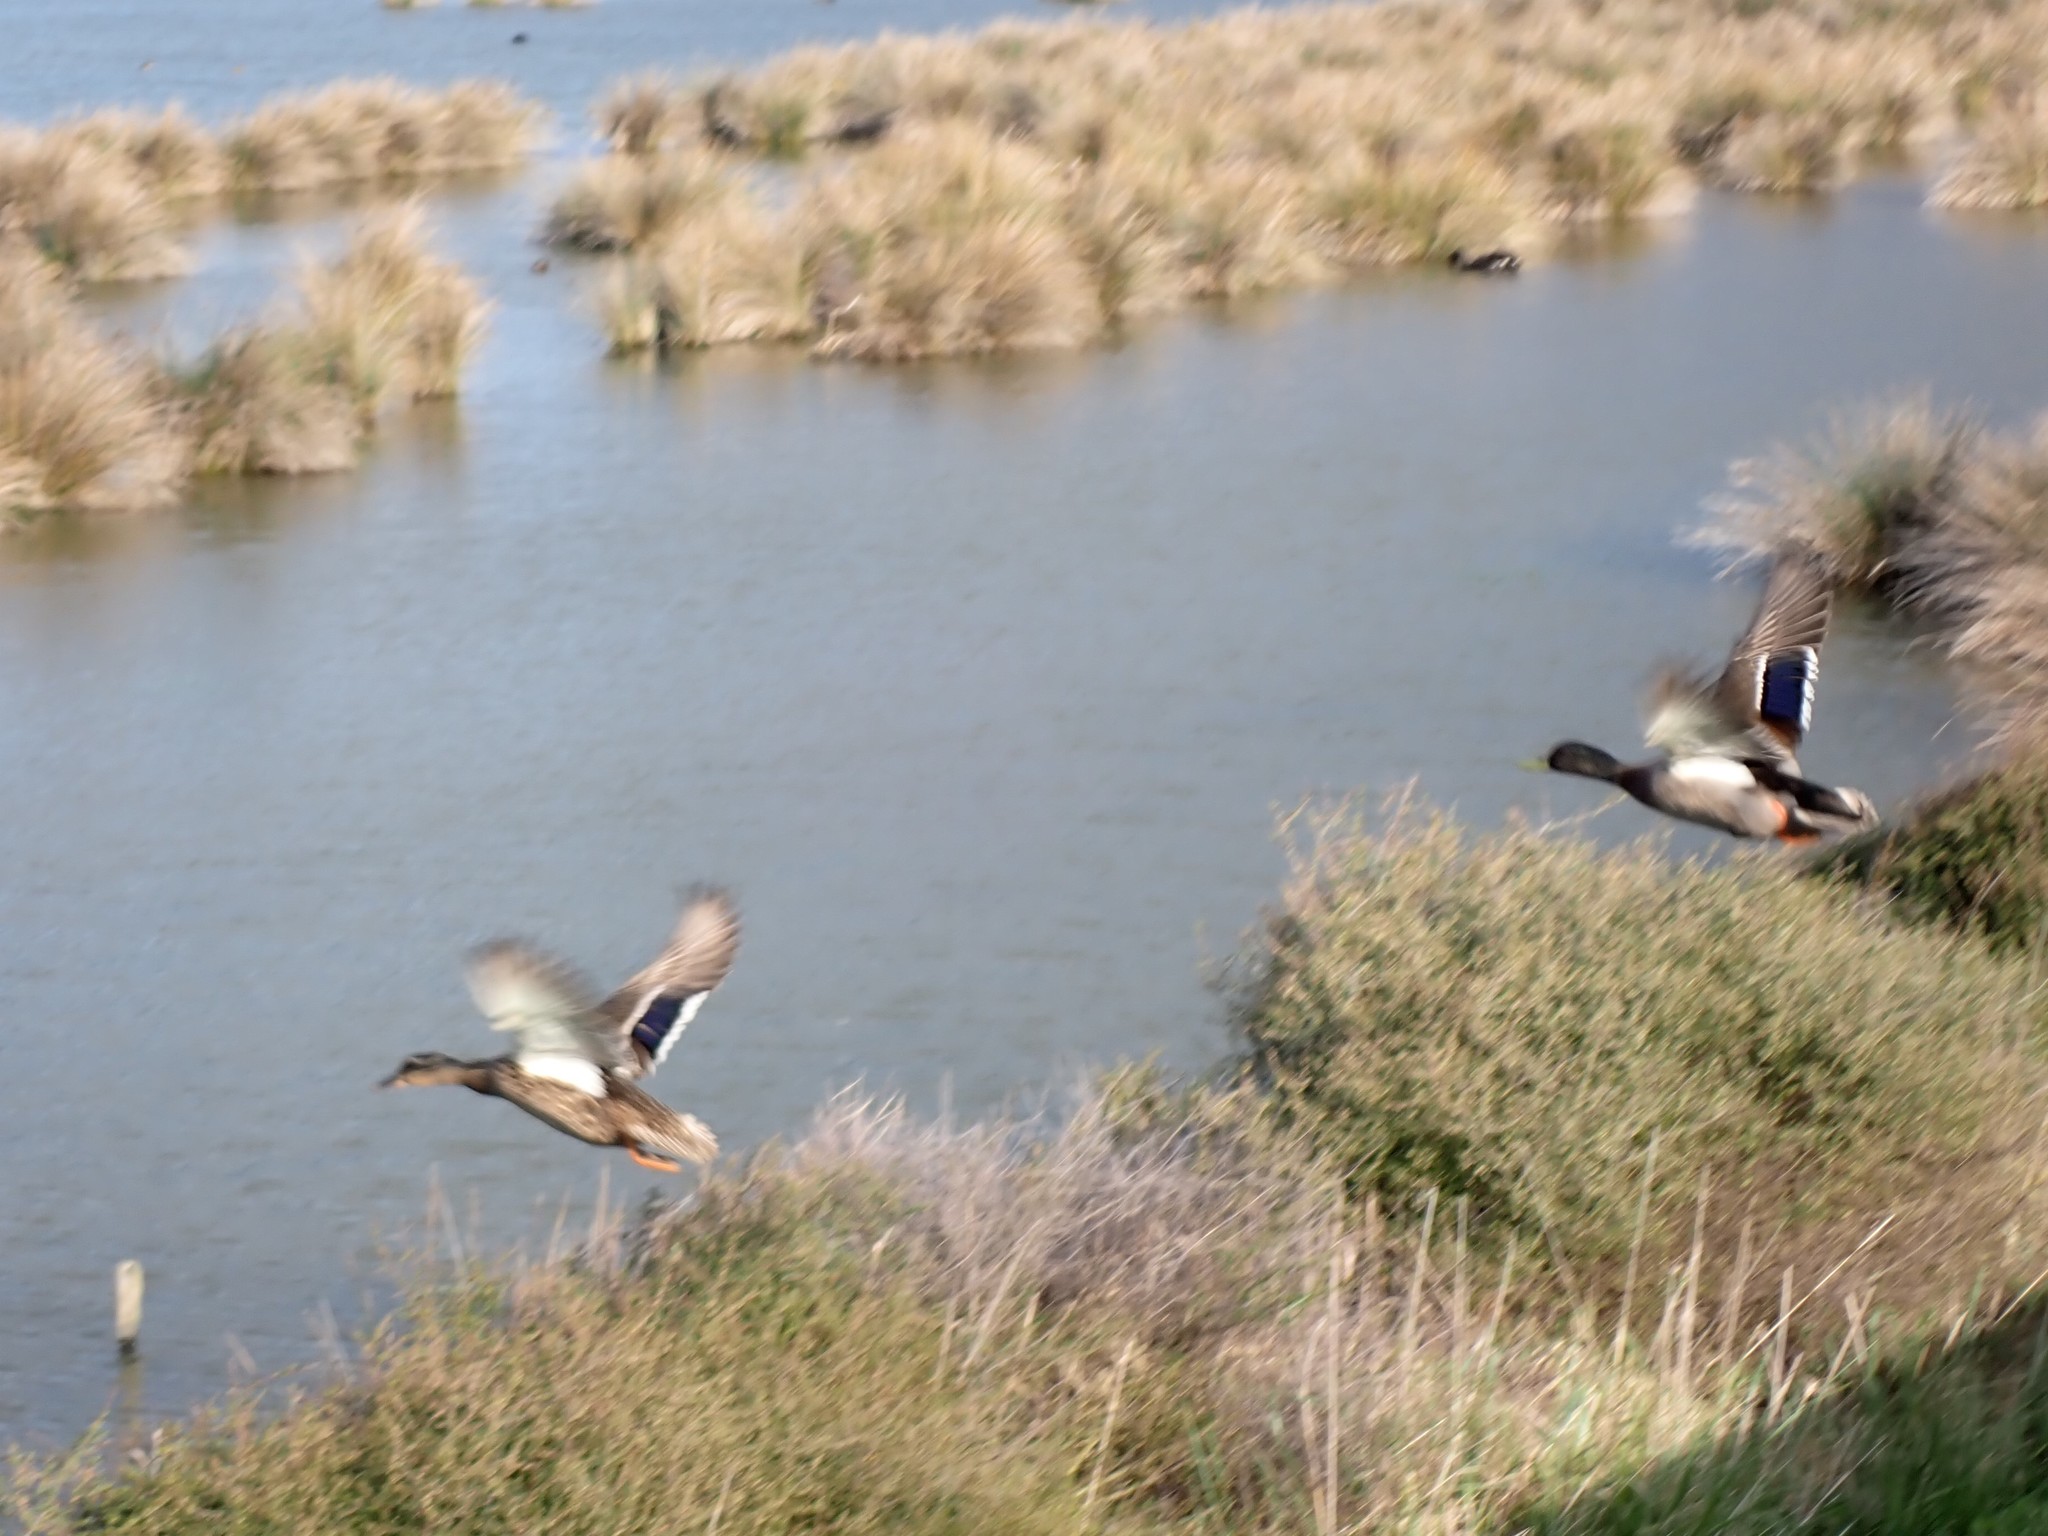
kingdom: Animalia
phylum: Chordata
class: Aves
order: Anseriformes
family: Anatidae
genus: Anas
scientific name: Anas platyrhynchos
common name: Mallard
